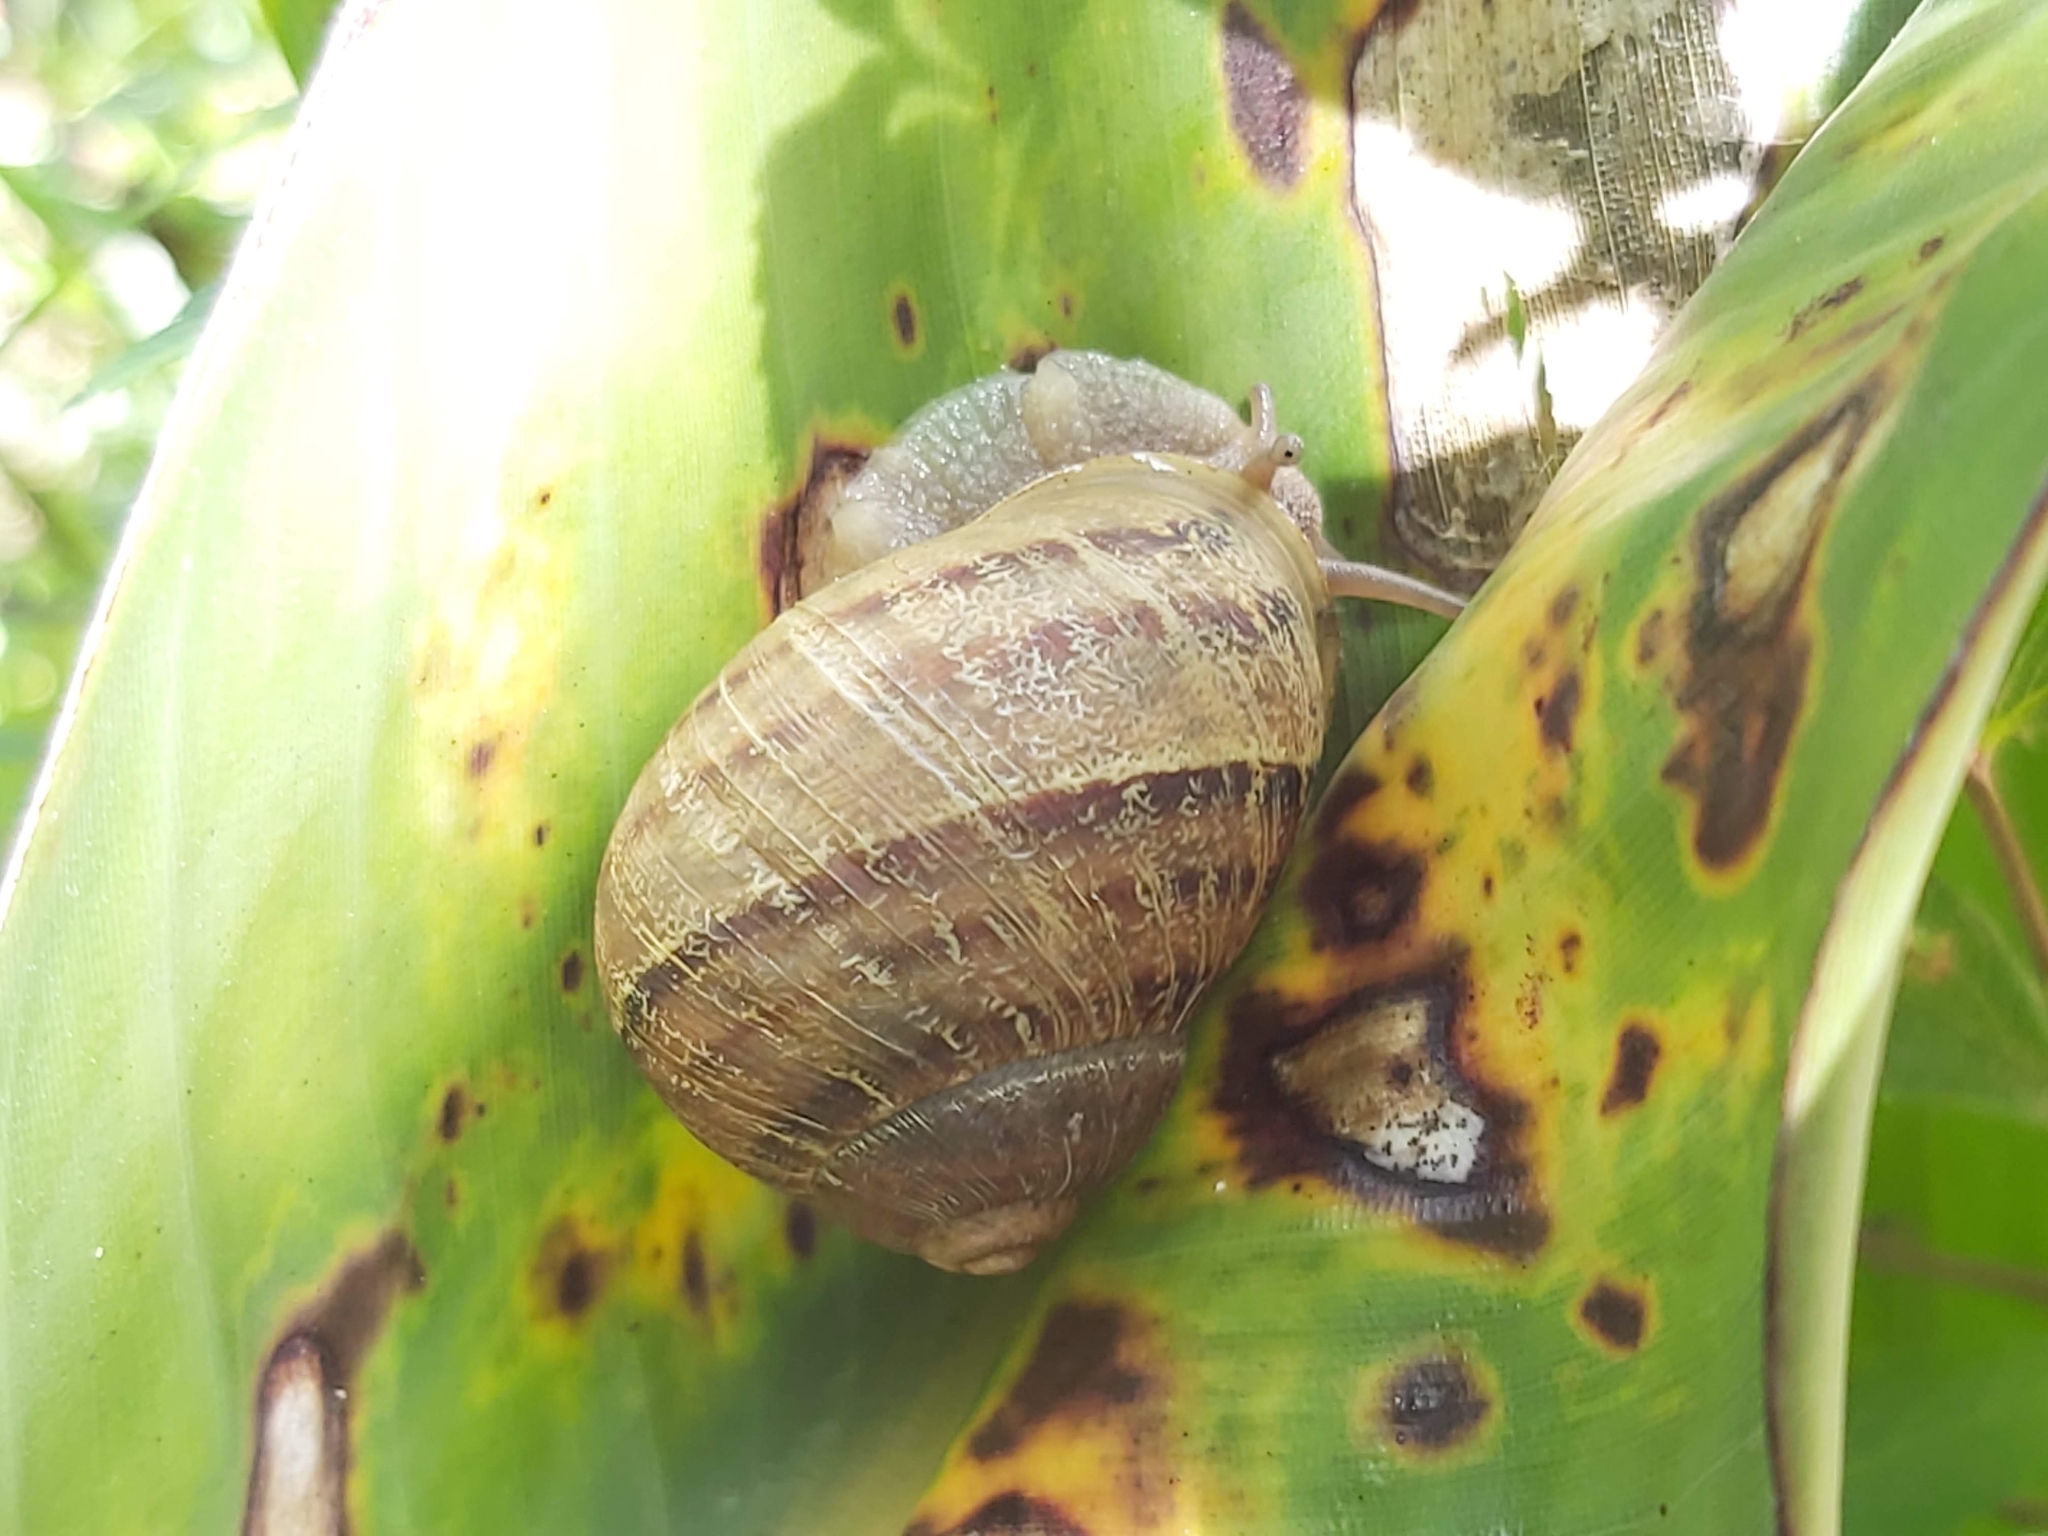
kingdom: Animalia
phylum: Mollusca
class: Gastropoda
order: Stylommatophora
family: Helicidae
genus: Cornu
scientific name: Cornu aspersum
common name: Brown garden snail
